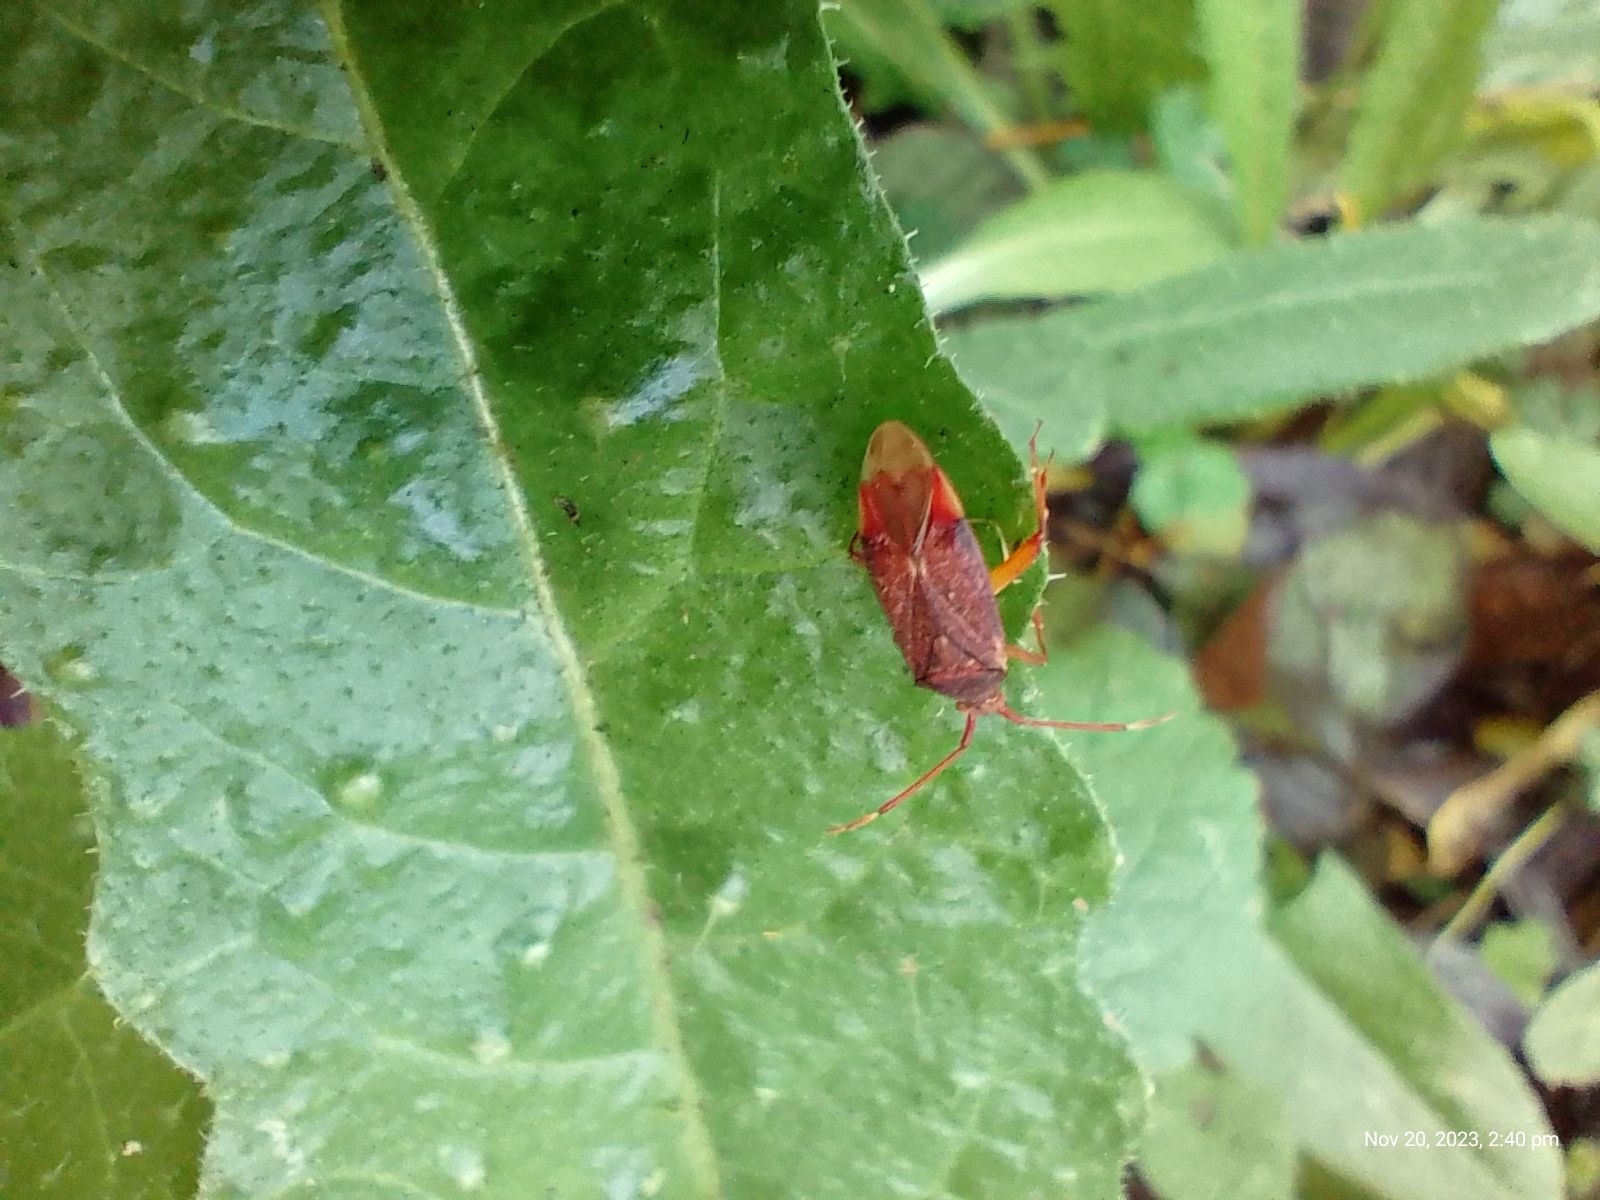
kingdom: Animalia
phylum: Arthropoda
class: Insecta
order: Hemiptera
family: Miridae
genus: Pantilius
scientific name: Pantilius tunicatus
